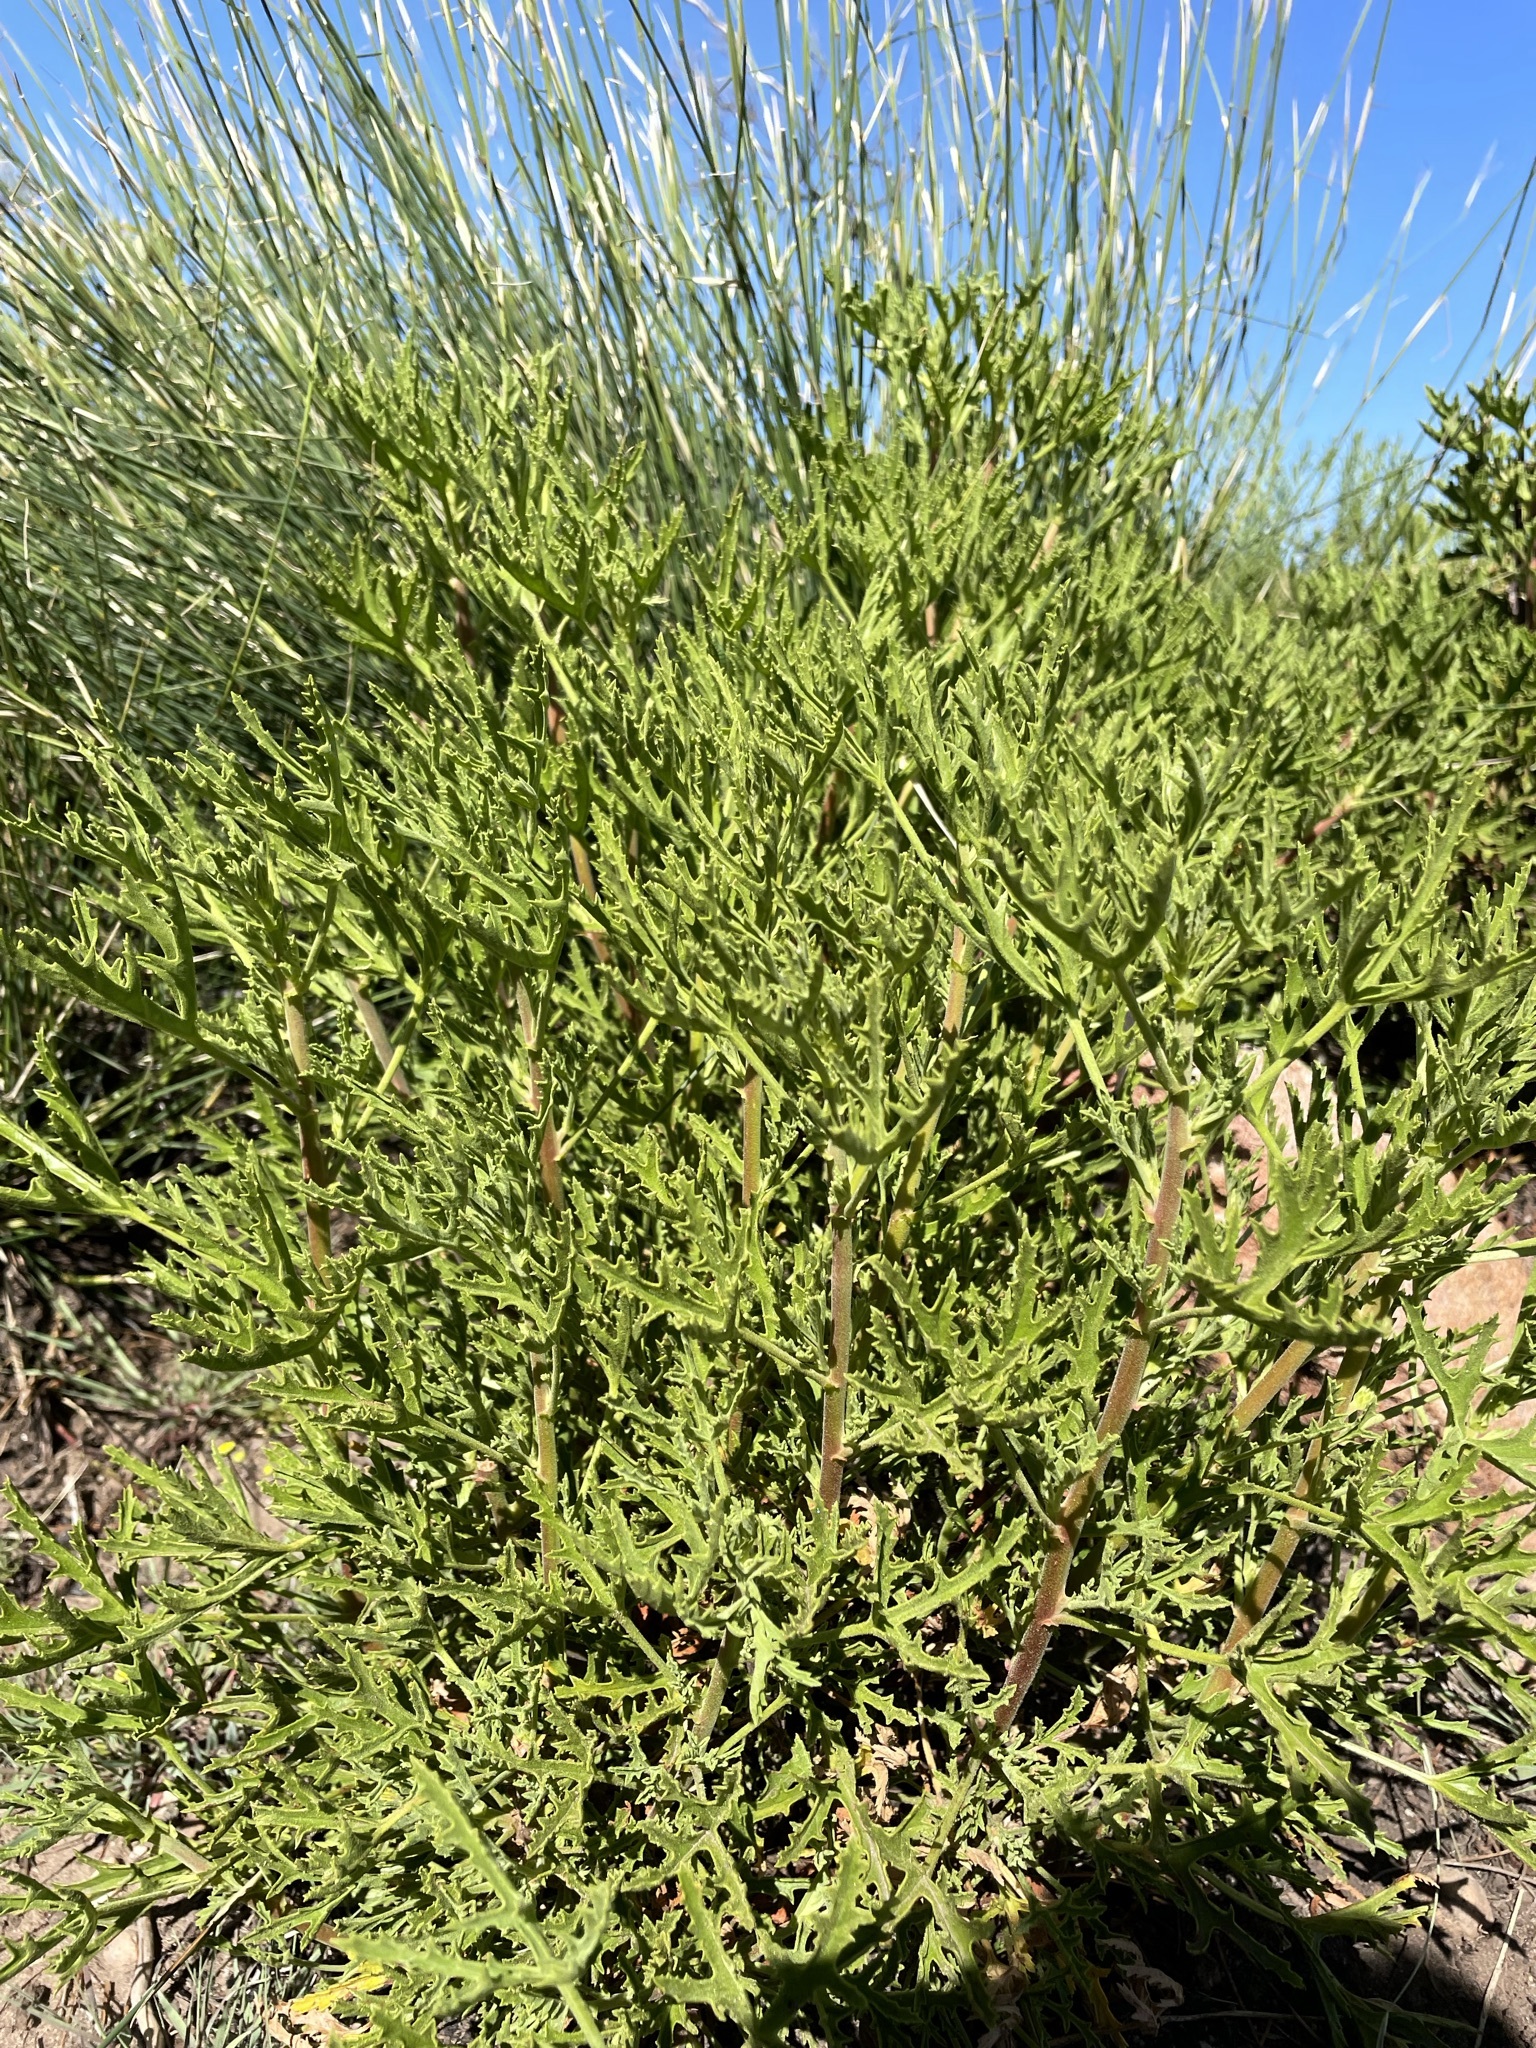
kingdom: Plantae
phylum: Tracheophyta
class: Magnoliopsida
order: Geraniales
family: Geraniaceae
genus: Pelargonium
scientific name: Pelargonium scabrum
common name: Apricot geranium
